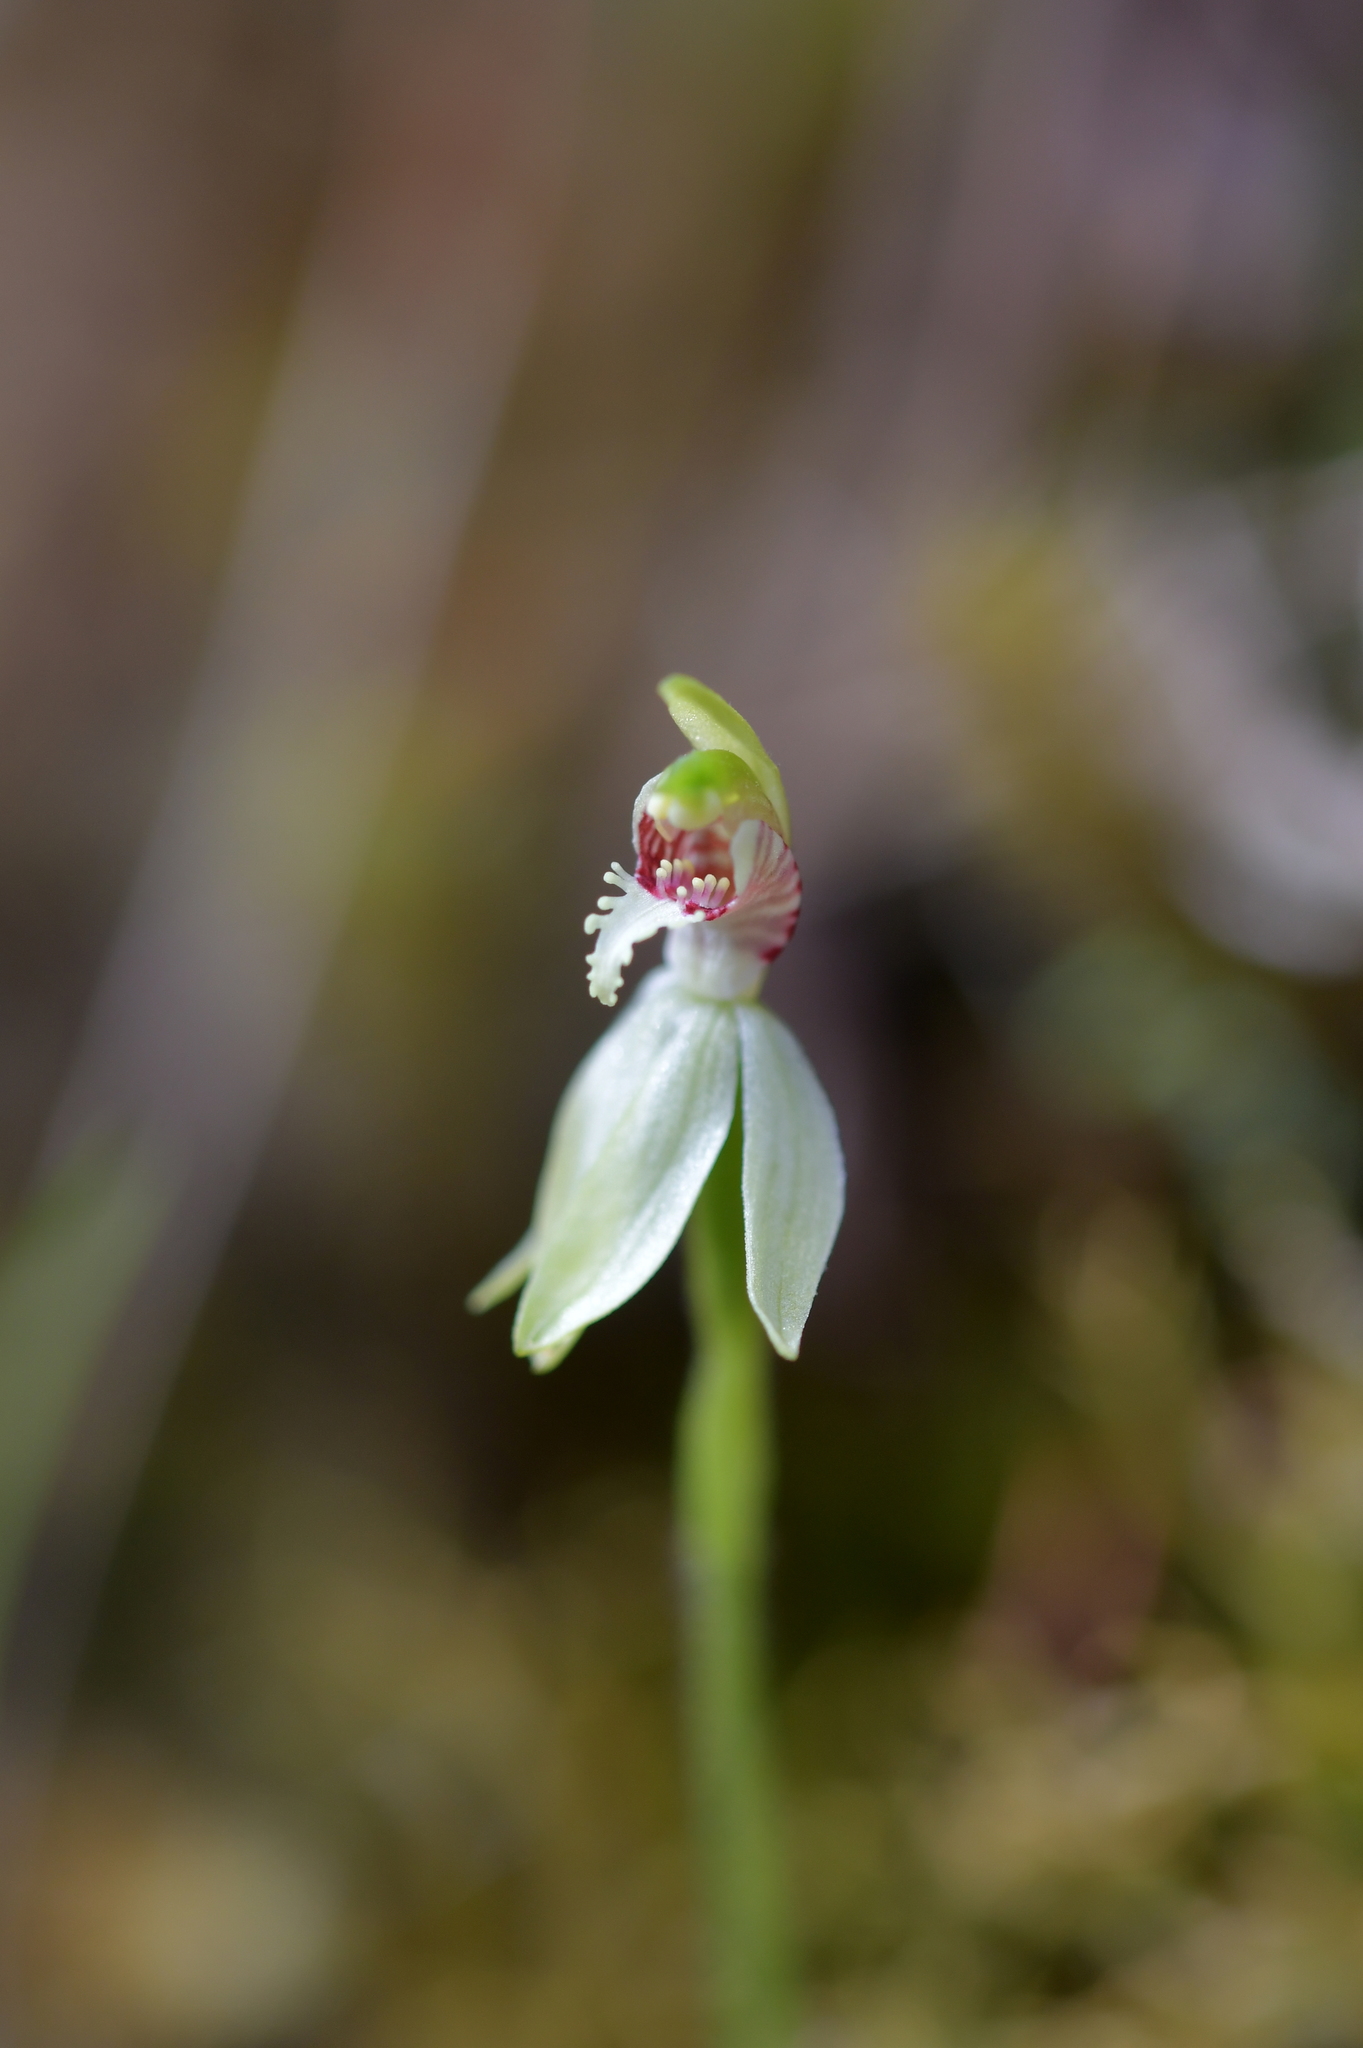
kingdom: Plantae
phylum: Tracheophyta
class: Liliopsida
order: Asparagales
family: Orchidaceae
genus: Caladenia
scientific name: Caladenia chlorostyla
